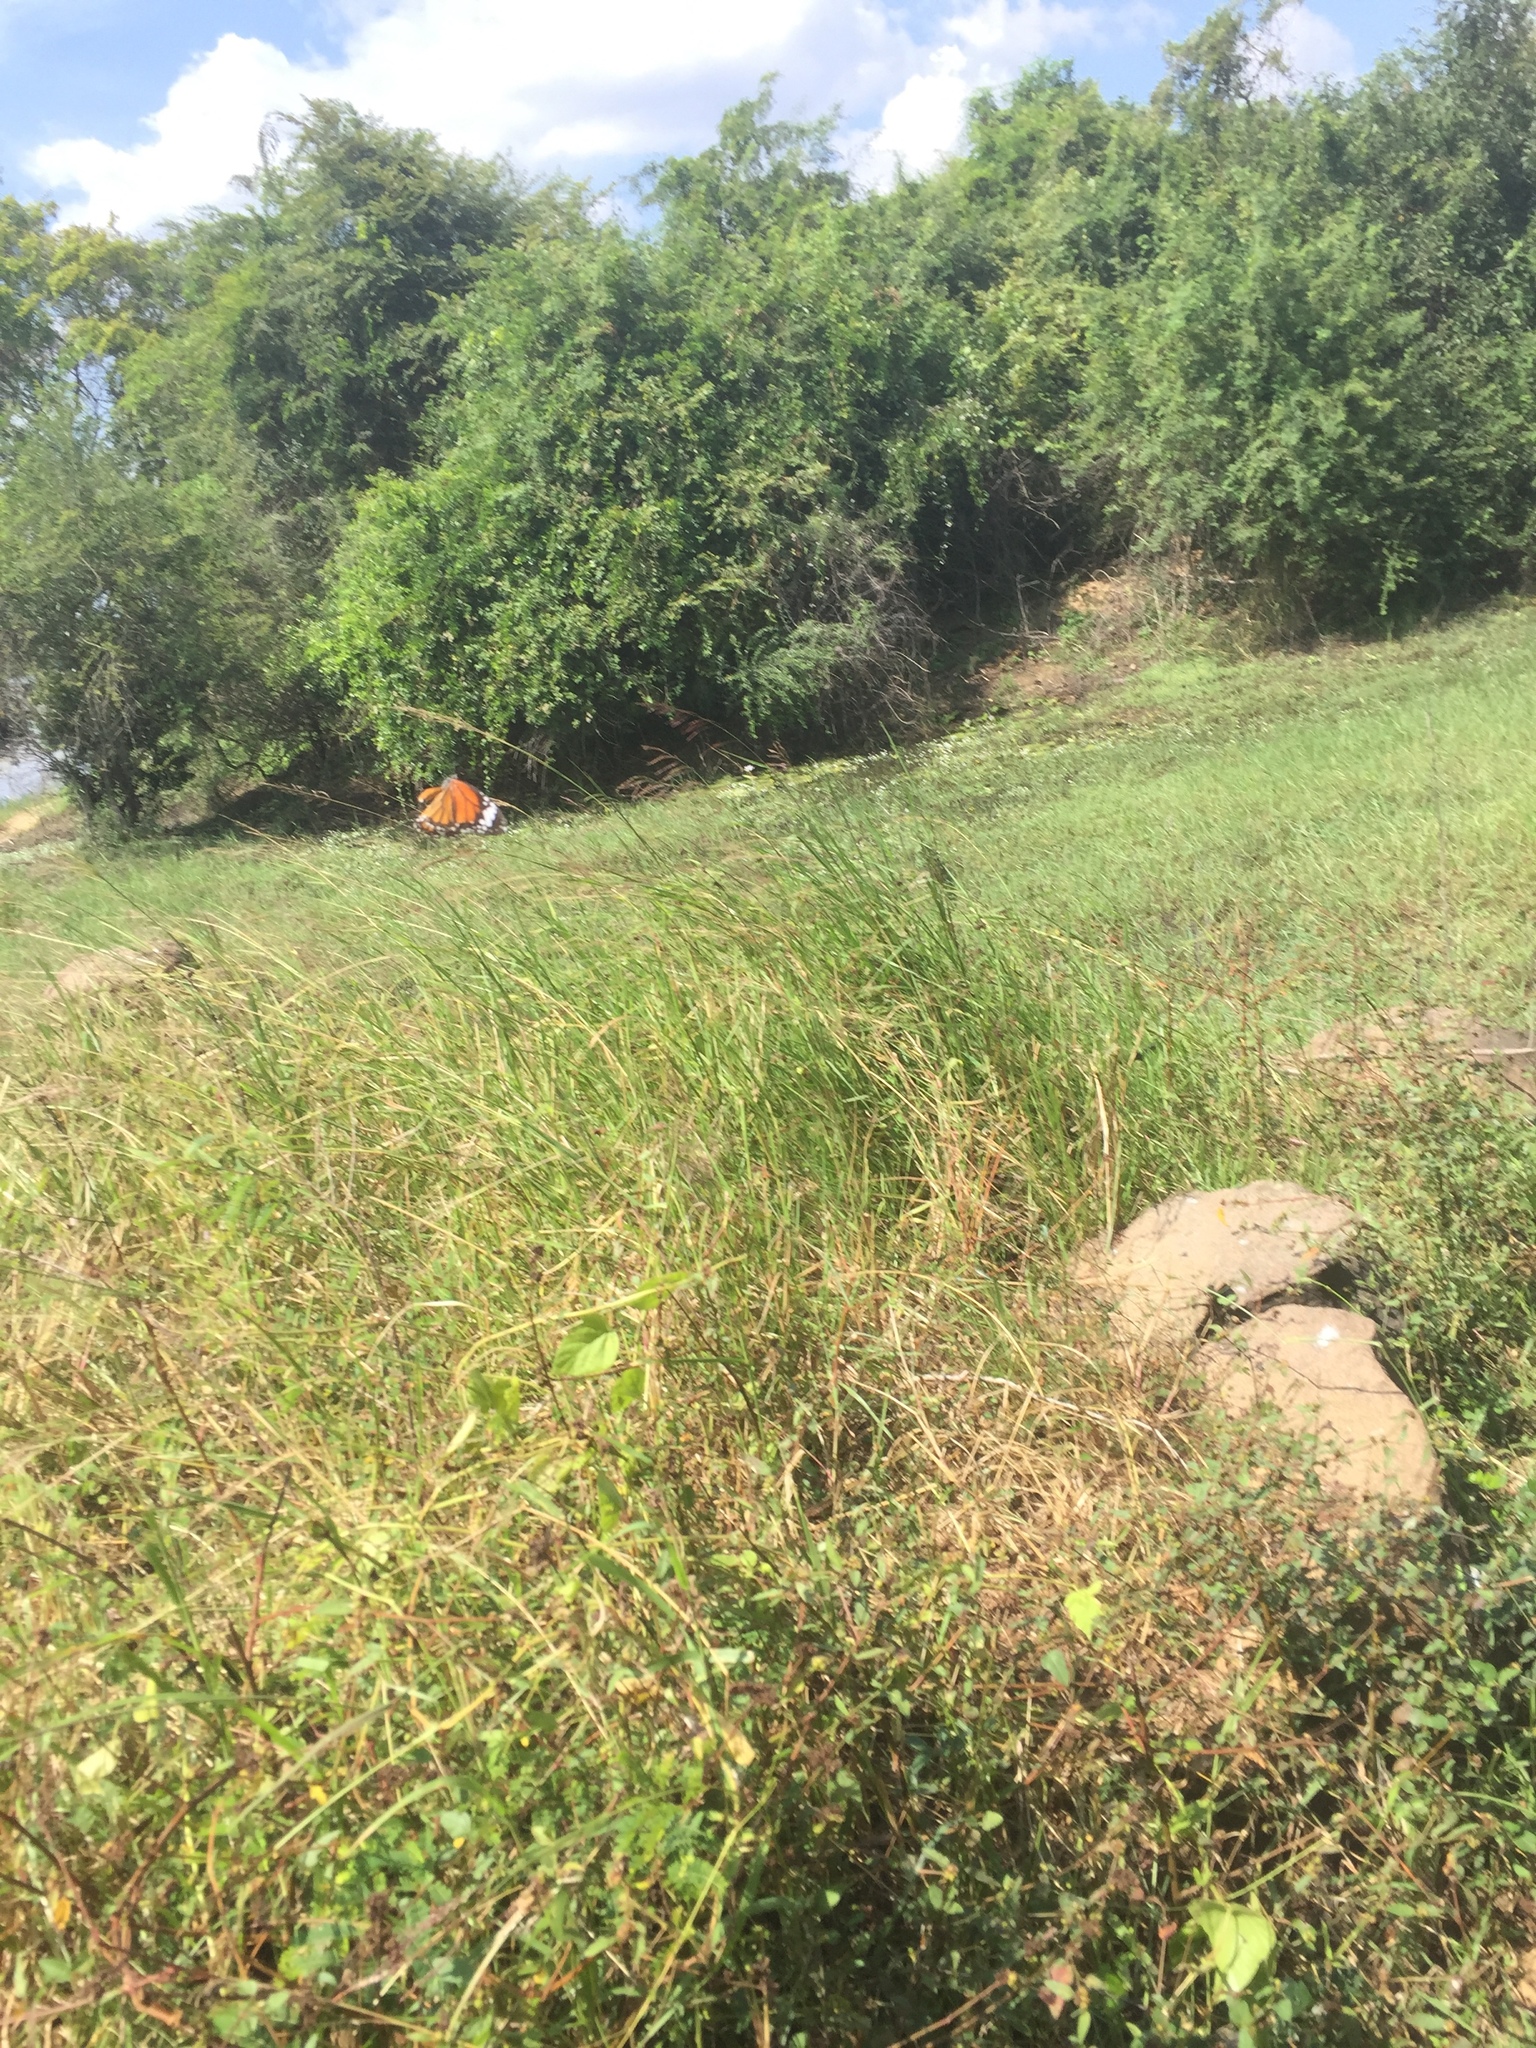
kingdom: Animalia
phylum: Arthropoda
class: Insecta
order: Lepidoptera
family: Nymphalidae
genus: Danaus
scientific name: Danaus genutia
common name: Common tiger butterfly
